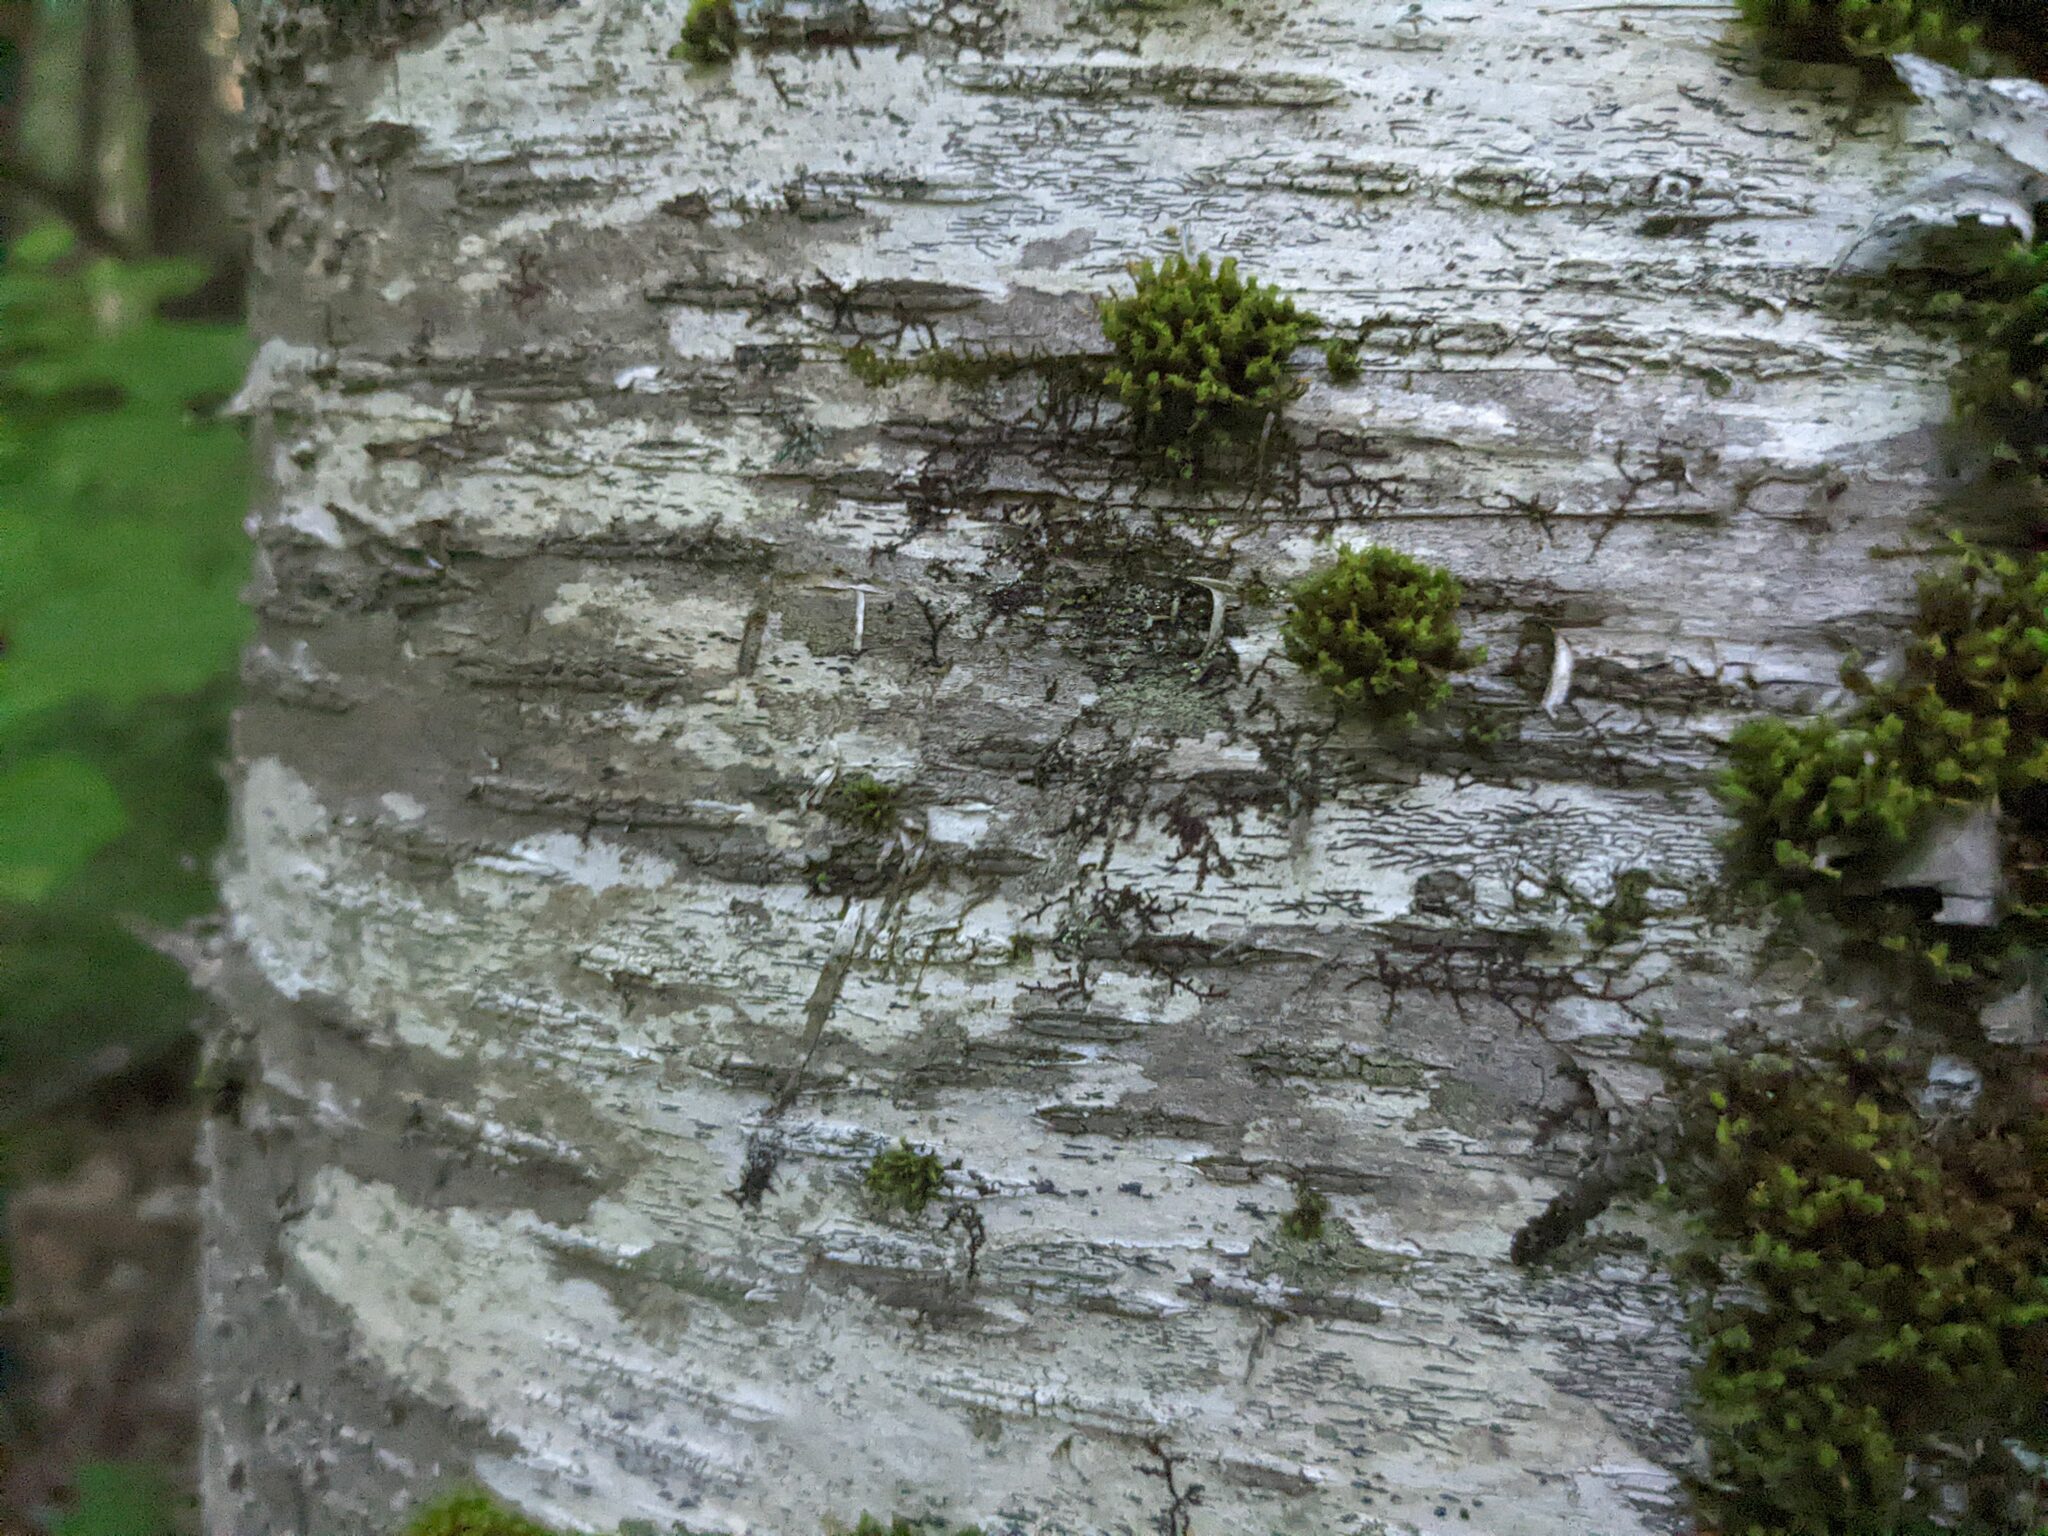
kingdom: Plantae
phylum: Marchantiophyta
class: Jungermanniopsida
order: Porellales
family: Frullaniaceae
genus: Frullania
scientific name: Frullania eboracensis
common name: New york scalewort
